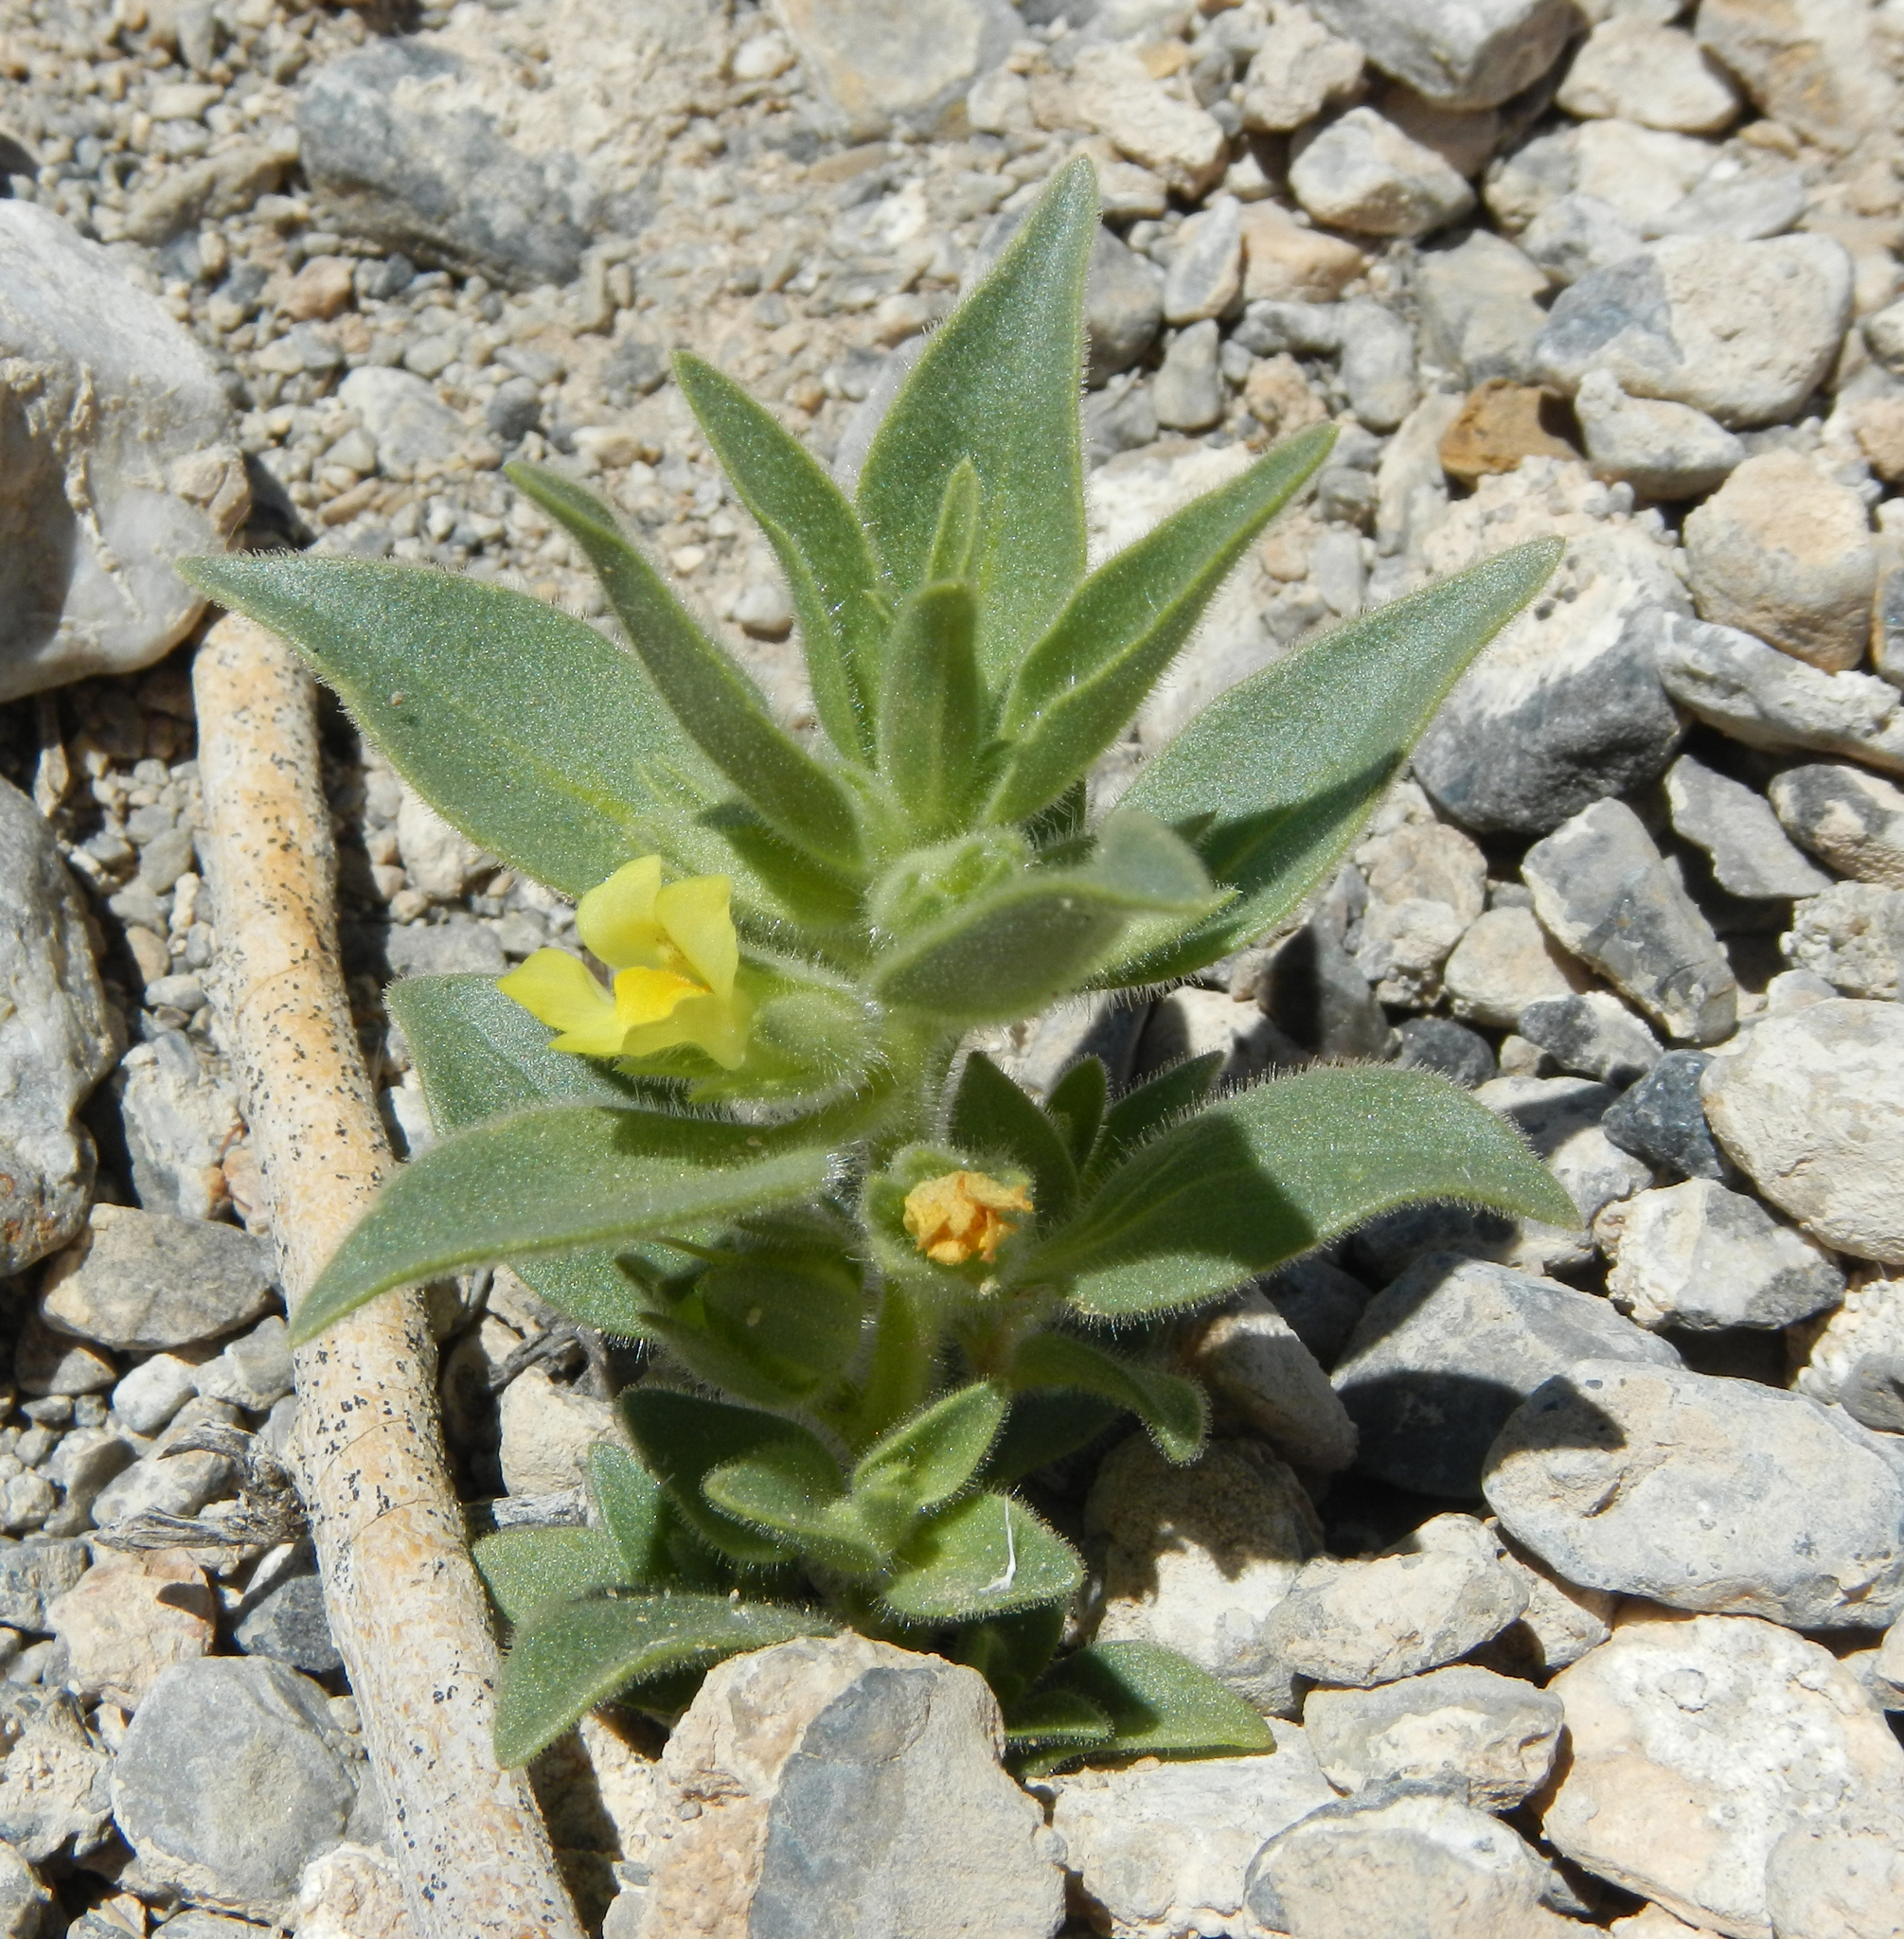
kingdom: Plantae
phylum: Tracheophyta
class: Magnoliopsida
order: Lamiales
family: Plantaginaceae
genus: Mohavea
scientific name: Mohavea breviflora
